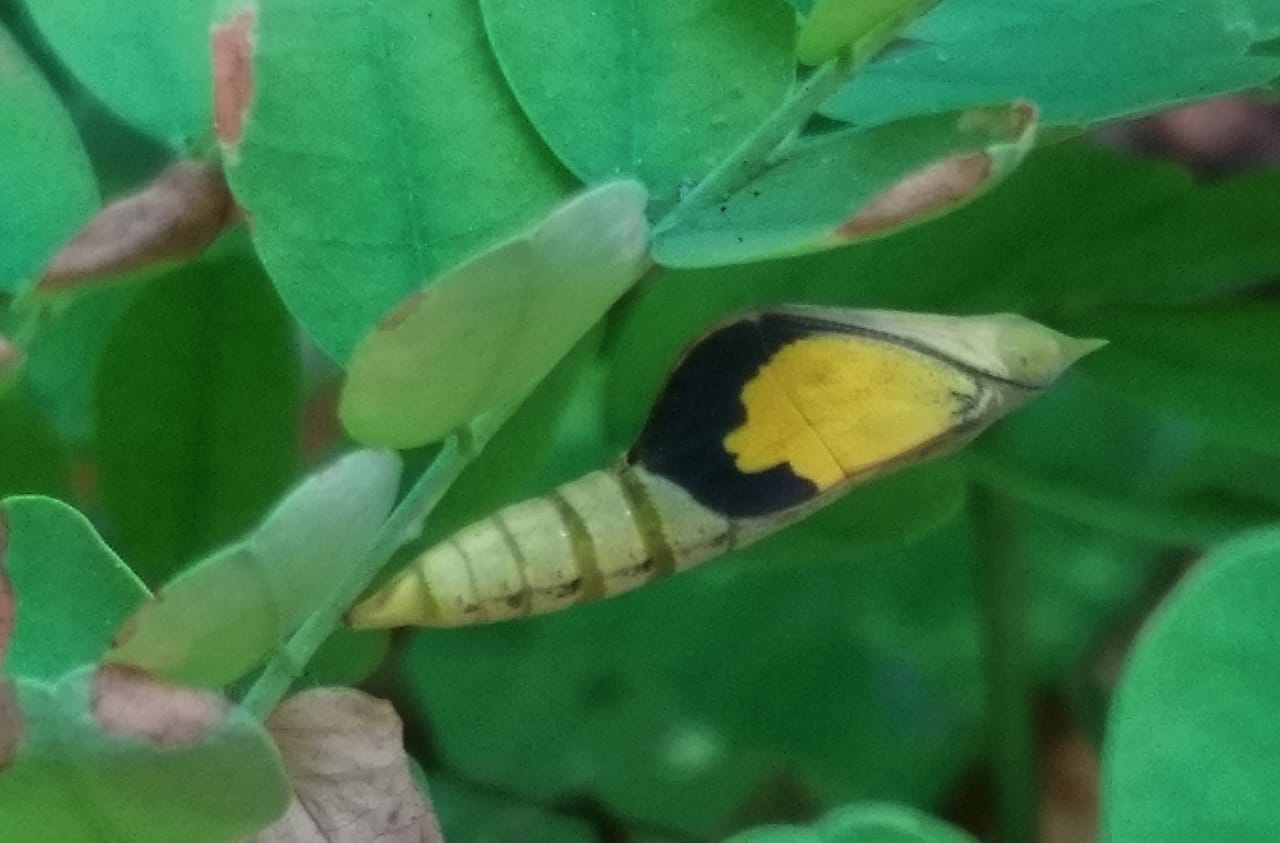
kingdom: Animalia
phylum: Arthropoda
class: Insecta
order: Lepidoptera
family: Pieridae
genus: Eurema
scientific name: Eurema hecabe
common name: Pale grass yellow
